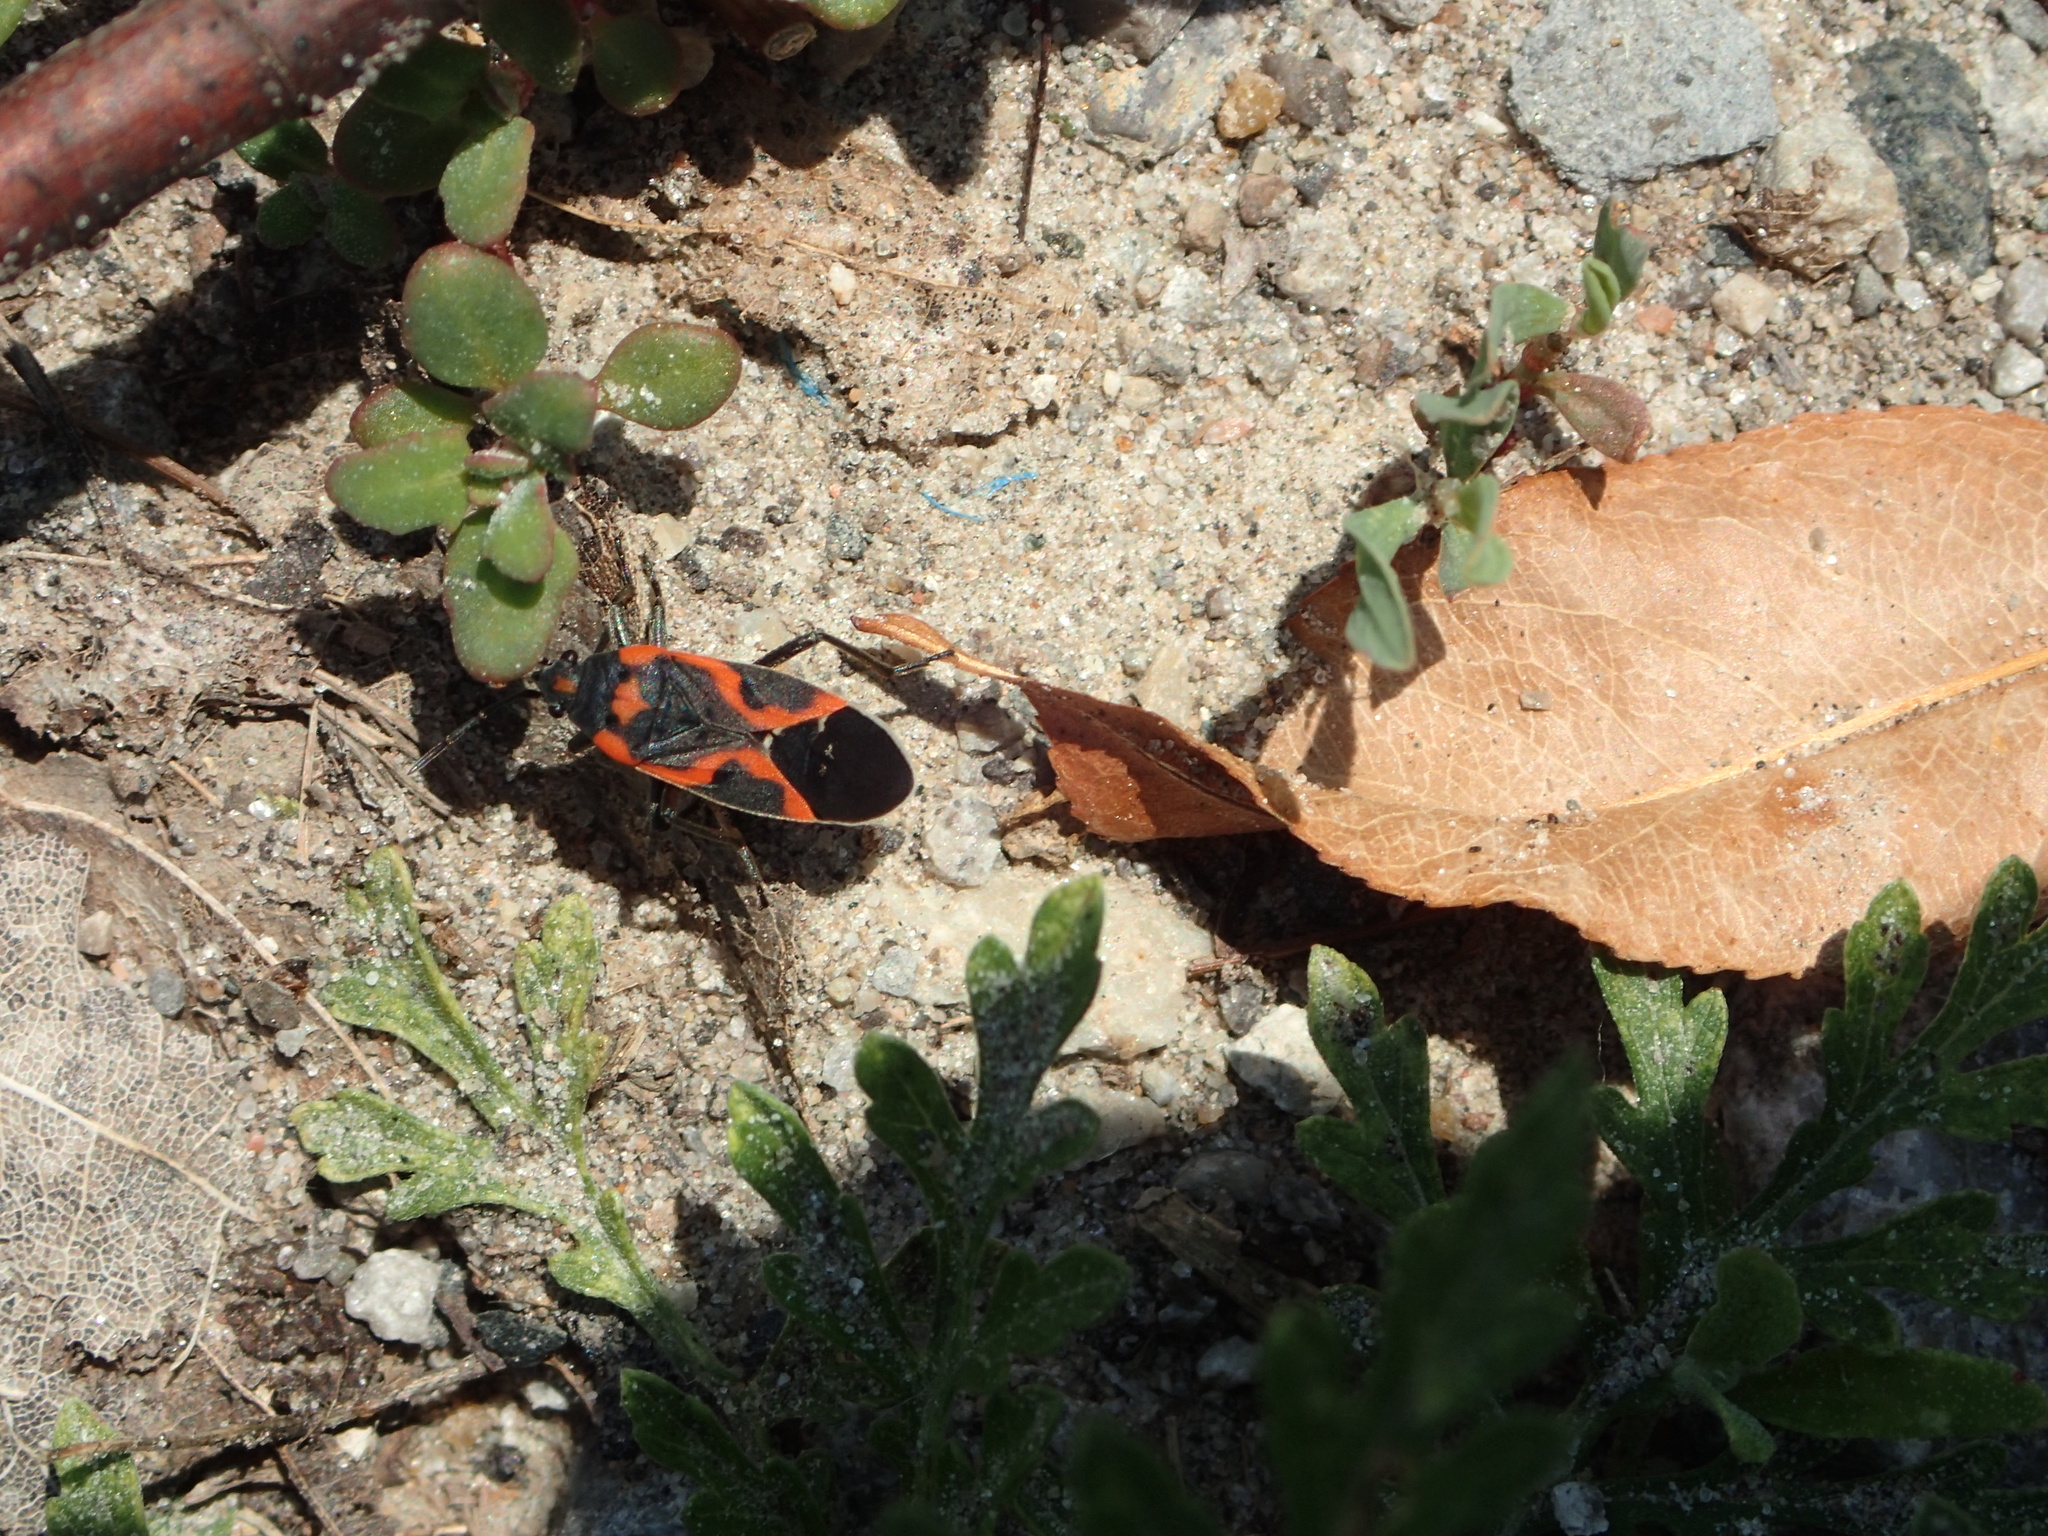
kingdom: Animalia
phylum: Arthropoda
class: Insecta
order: Hemiptera
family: Lygaeidae
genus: Lygaeus
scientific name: Lygaeus kalmii
